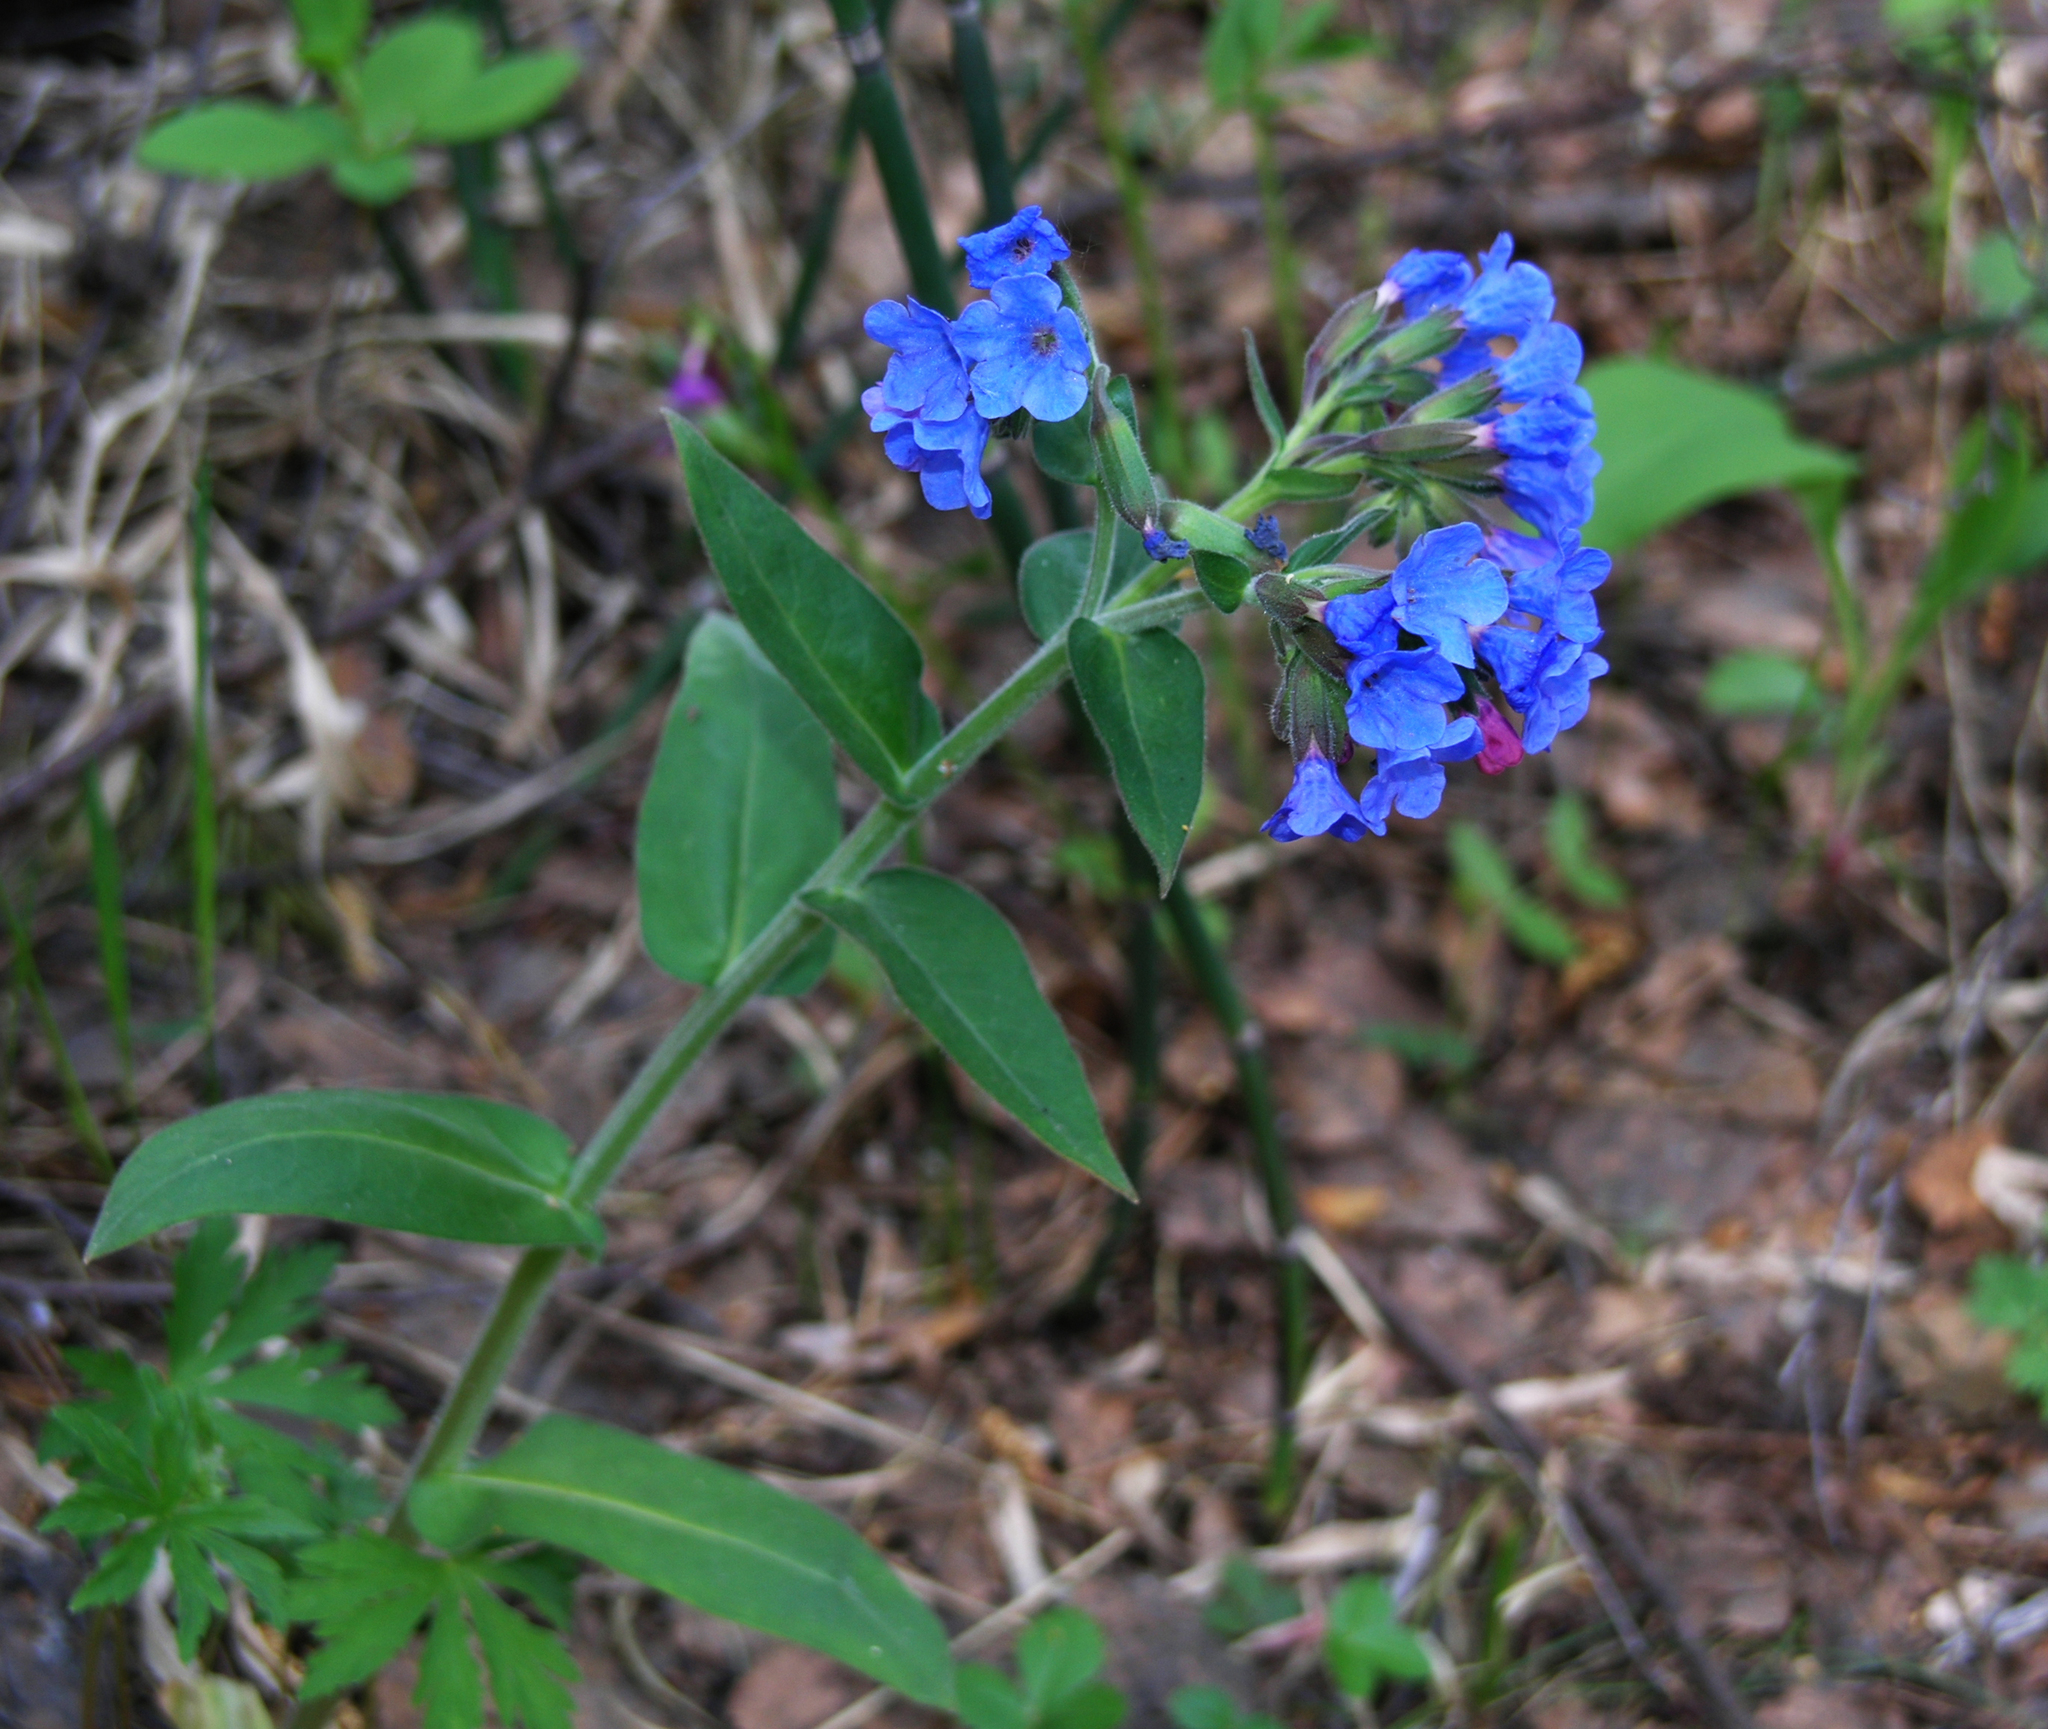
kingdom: Plantae
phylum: Tracheophyta
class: Magnoliopsida
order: Boraginales
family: Boraginaceae
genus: Pulmonaria
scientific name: Pulmonaria mollis
